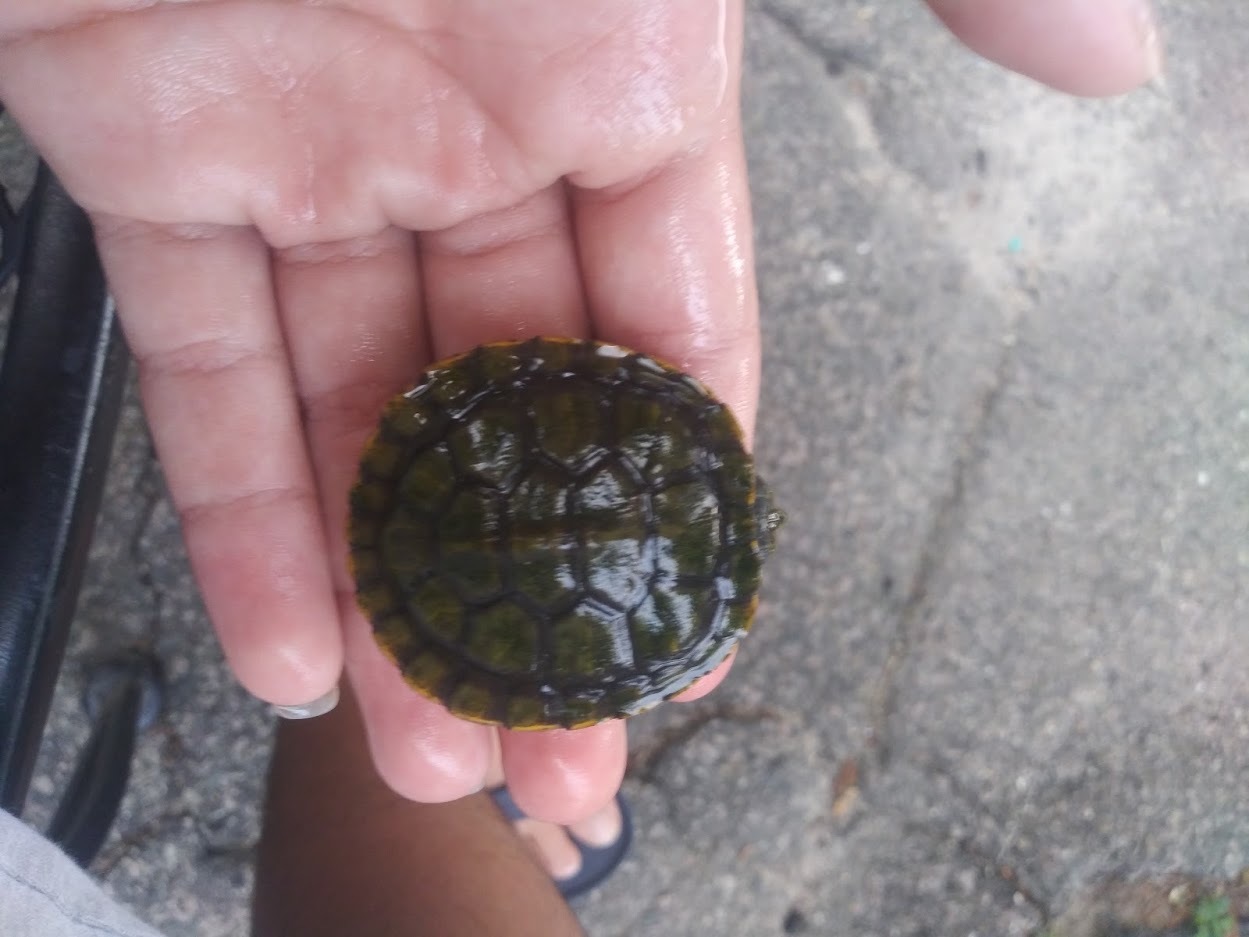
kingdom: Animalia
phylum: Chordata
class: Testudines
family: Emydidae
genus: Trachemys
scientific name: Trachemys scripta
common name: Slider
